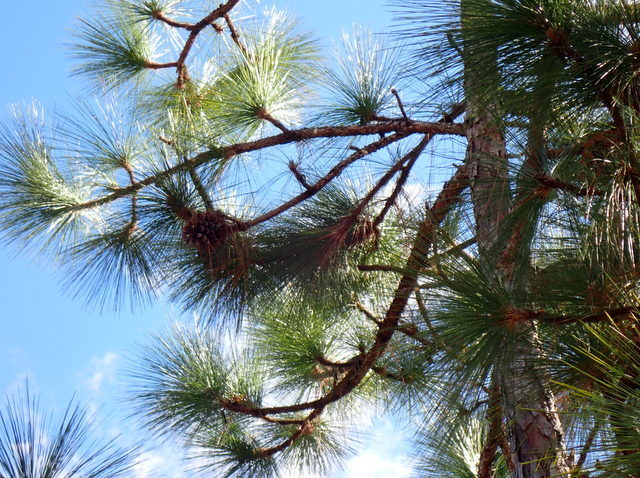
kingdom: Plantae
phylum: Tracheophyta
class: Pinopsida
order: Pinales
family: Pinaceae
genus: Pinus
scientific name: Pinus palustris
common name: Longleaf pine
